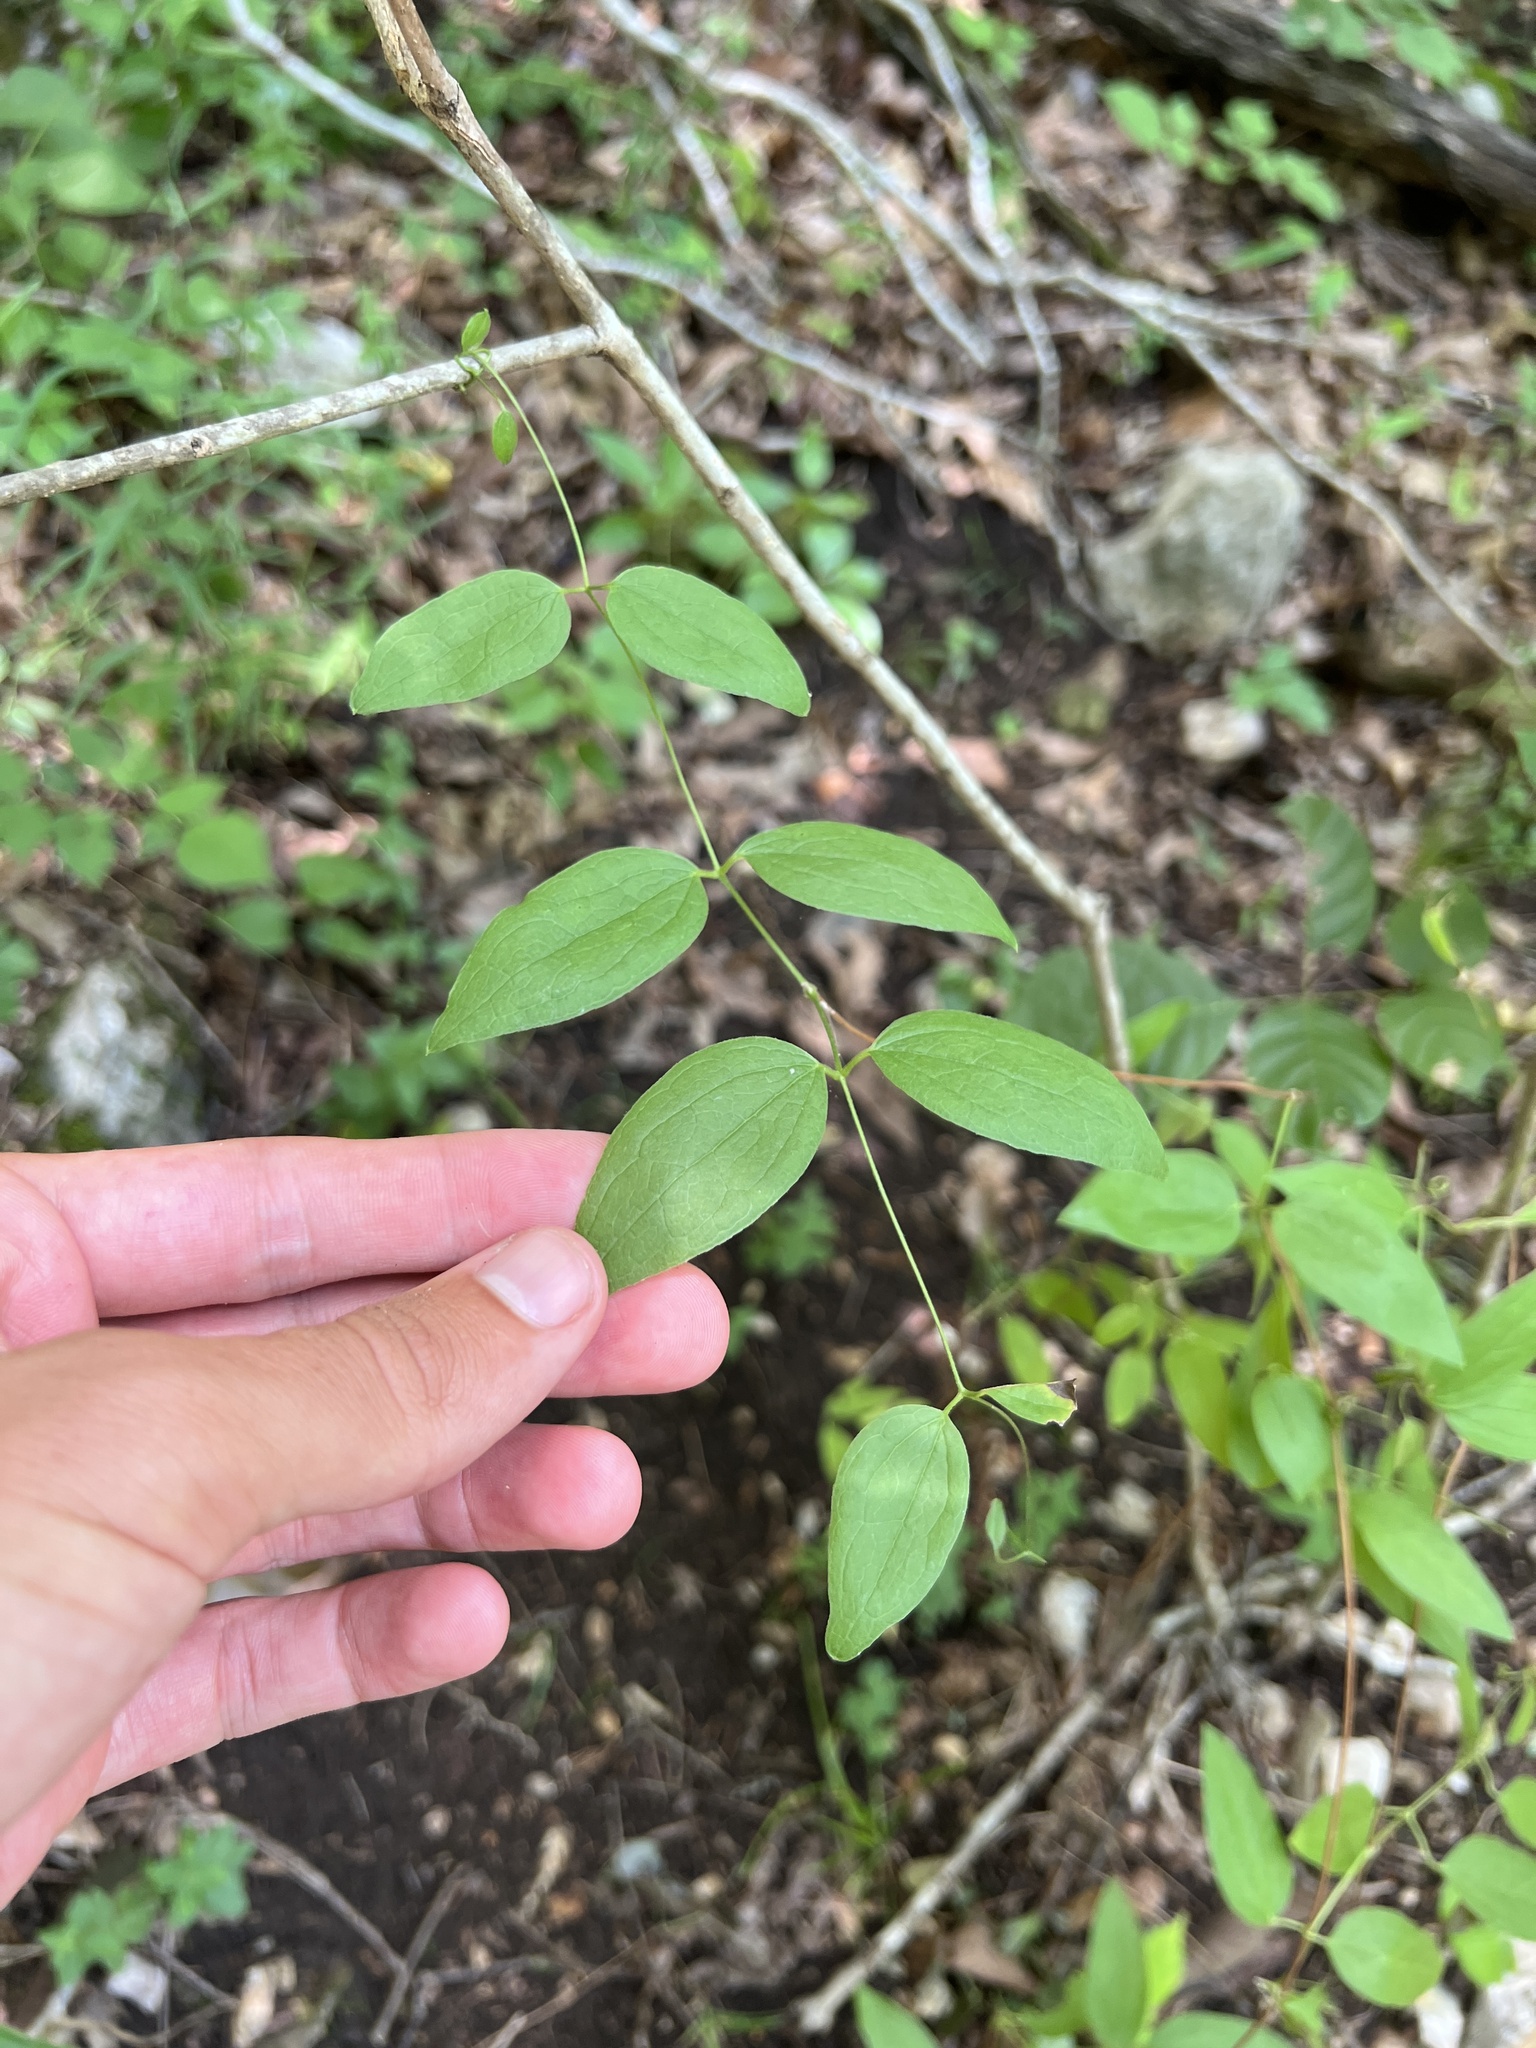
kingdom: Plantae
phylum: Tracheophyta
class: Magnoliopsida
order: Ranunculales
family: Ranunculaceae
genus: Clematis
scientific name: Clematis pitcheri
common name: Bellflower clematis
